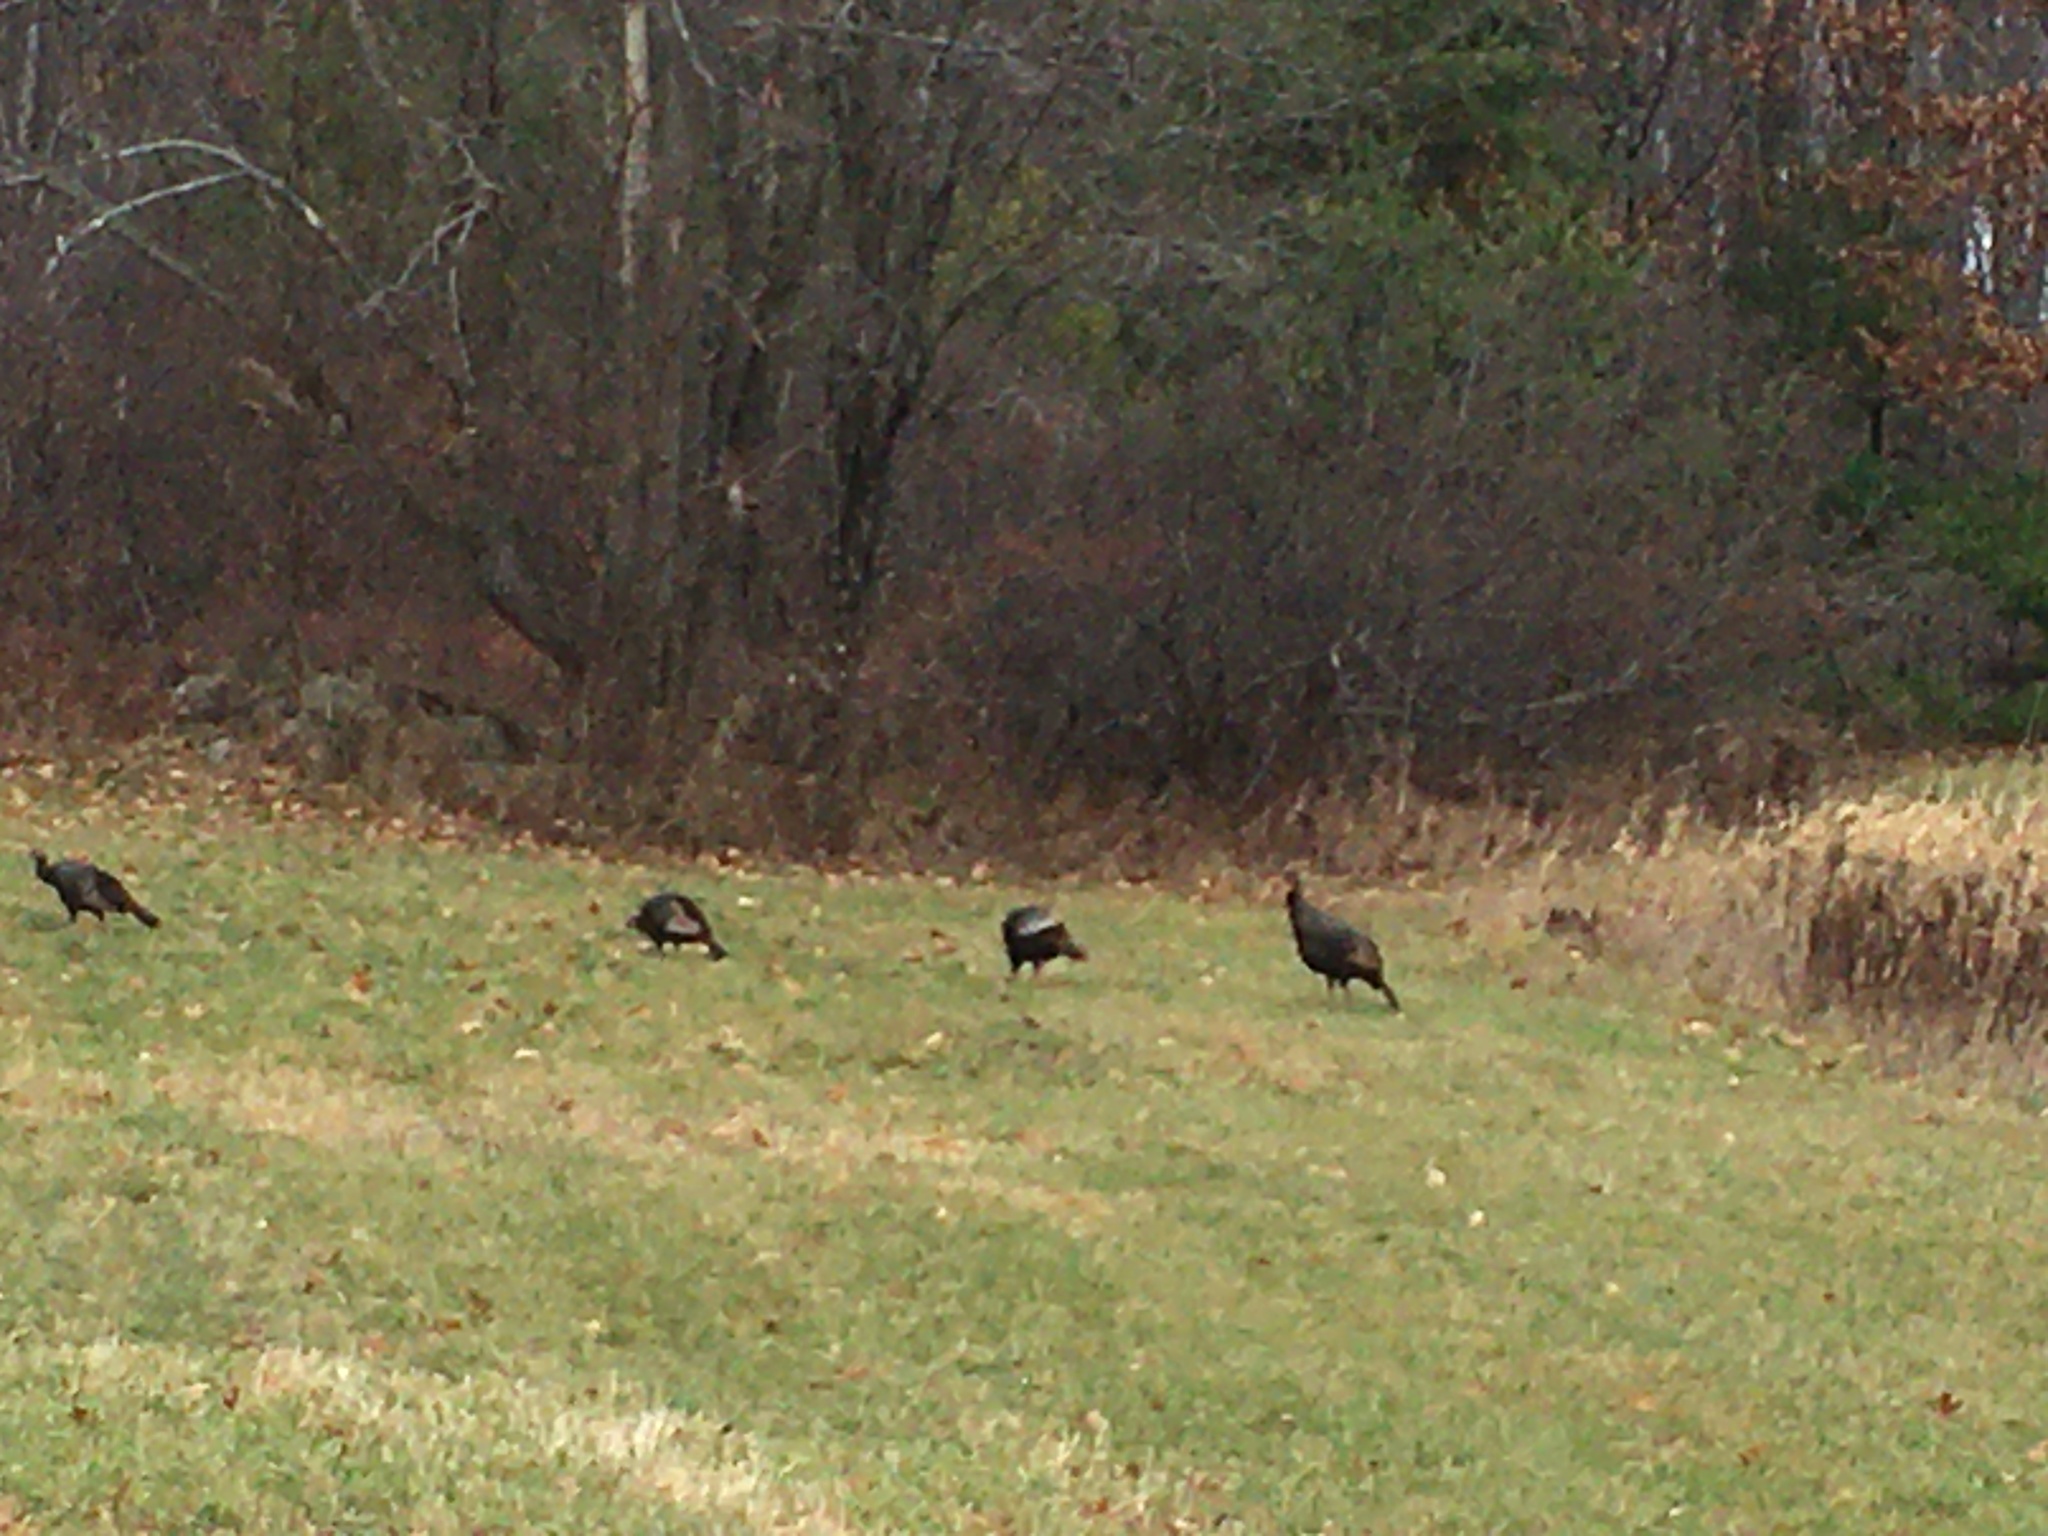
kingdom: Animalia
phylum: Chordata
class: Aves
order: Galliformes
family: Phasianidae
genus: Meleagris
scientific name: Meleagris gallopavo
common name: Wild turkey
